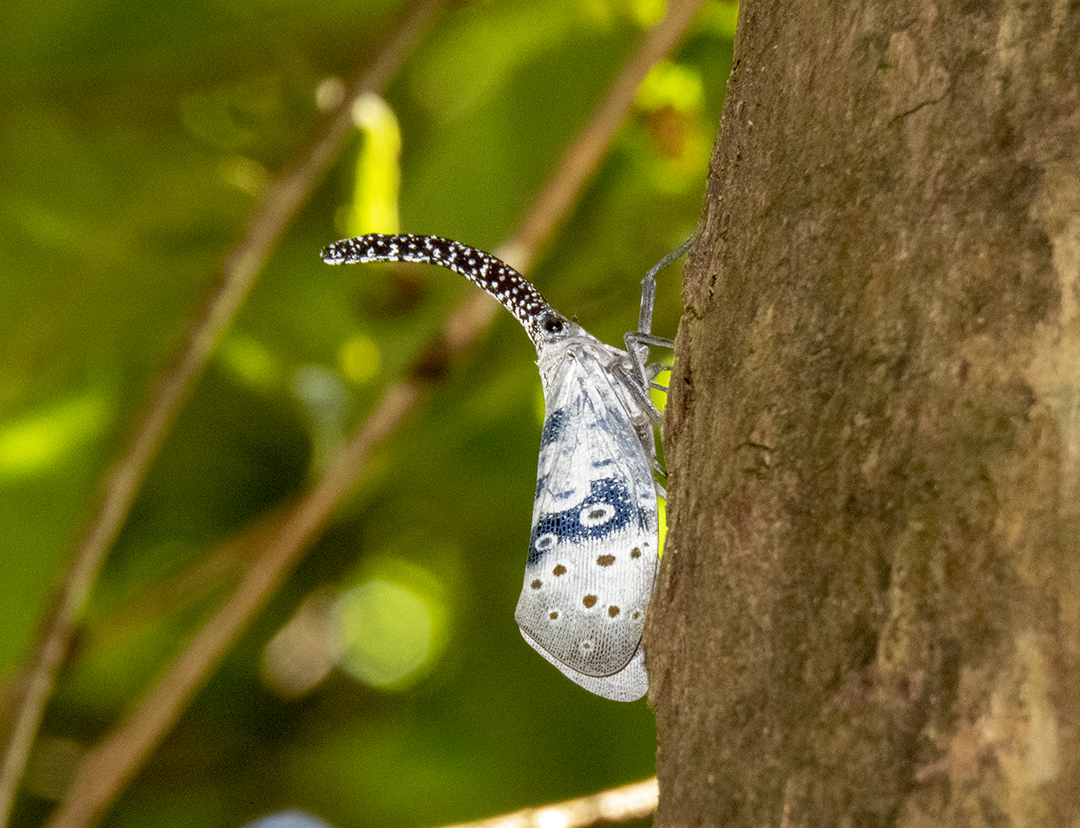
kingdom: Animalia
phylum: Arthropoda
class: Insecta
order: Hemiptera
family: Fulgoridae
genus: Pyrops
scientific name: Pyrops coelestinus
